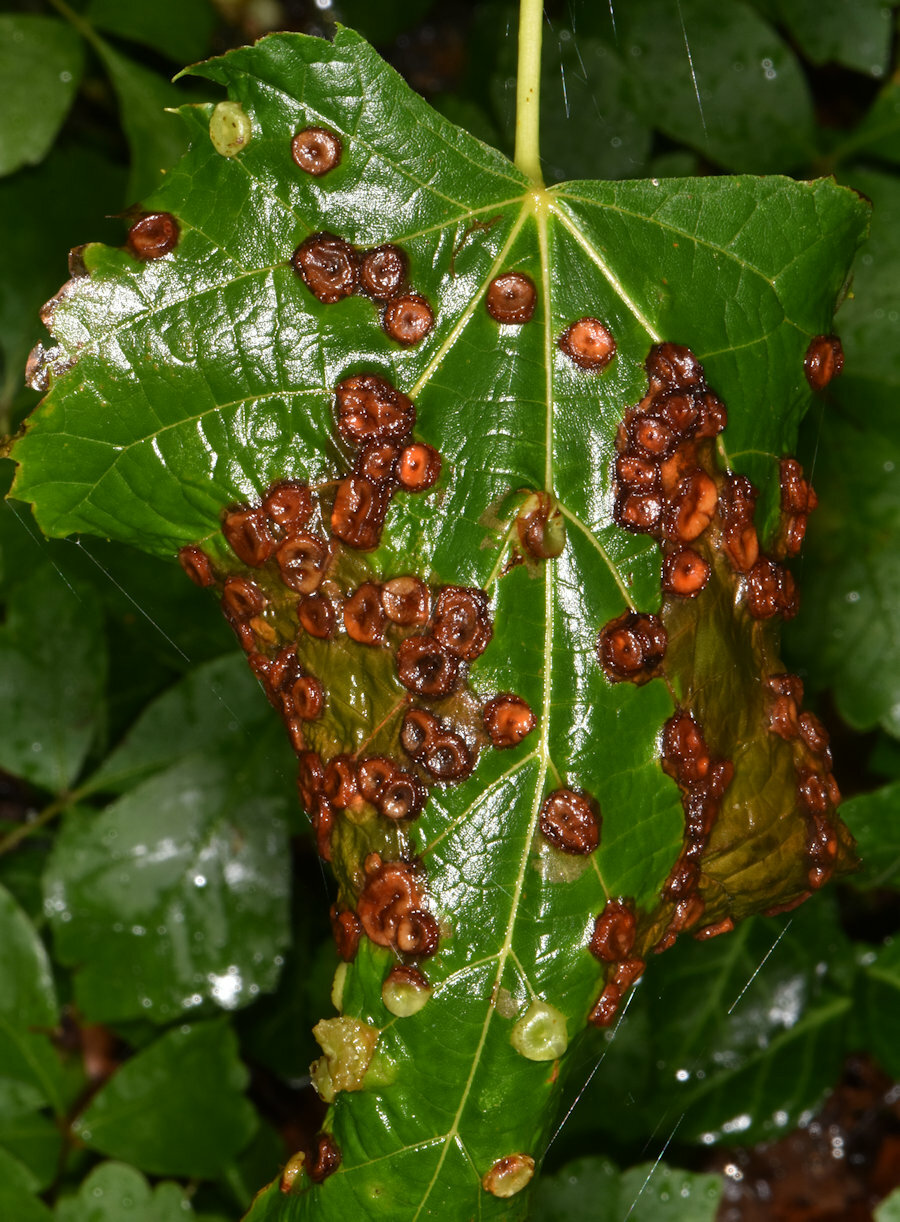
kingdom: Animalia
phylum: Arthropoda
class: Insecta
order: Diptera
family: Cecidomyiidae
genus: Didymomyia
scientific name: Didymomyia tiliacea
